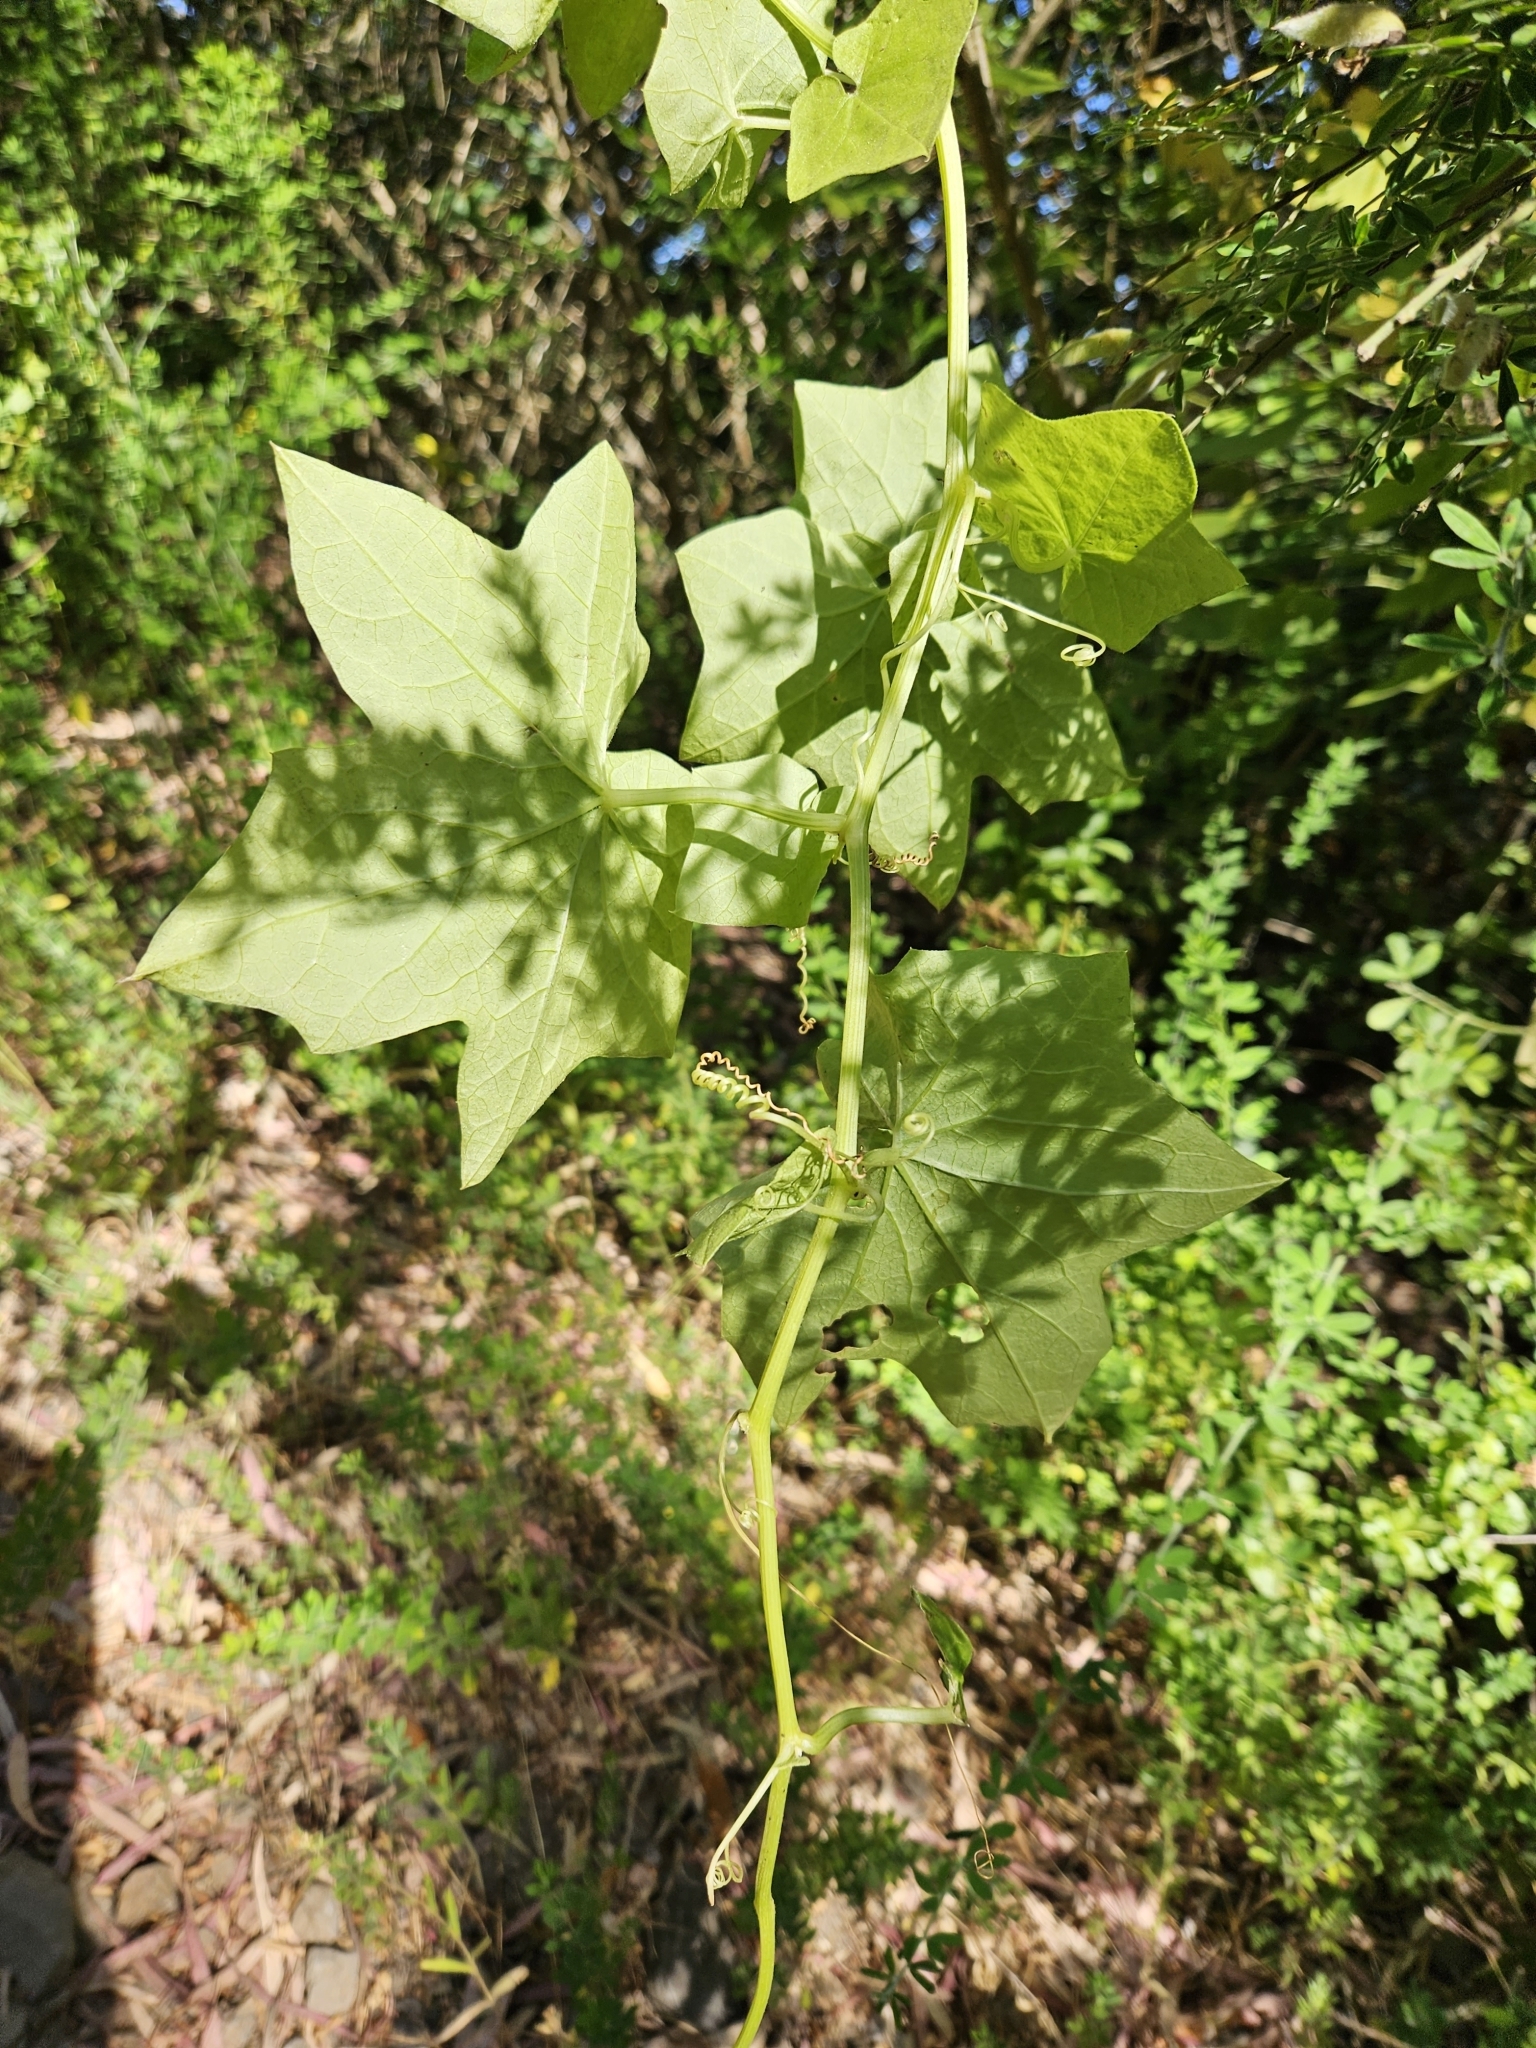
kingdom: Plantae
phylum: Tracheophyta
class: Magnoliopsida
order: Cucurbitales
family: Cucurbitaceae
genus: Marah
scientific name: Marah fabacea
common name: California manroot
